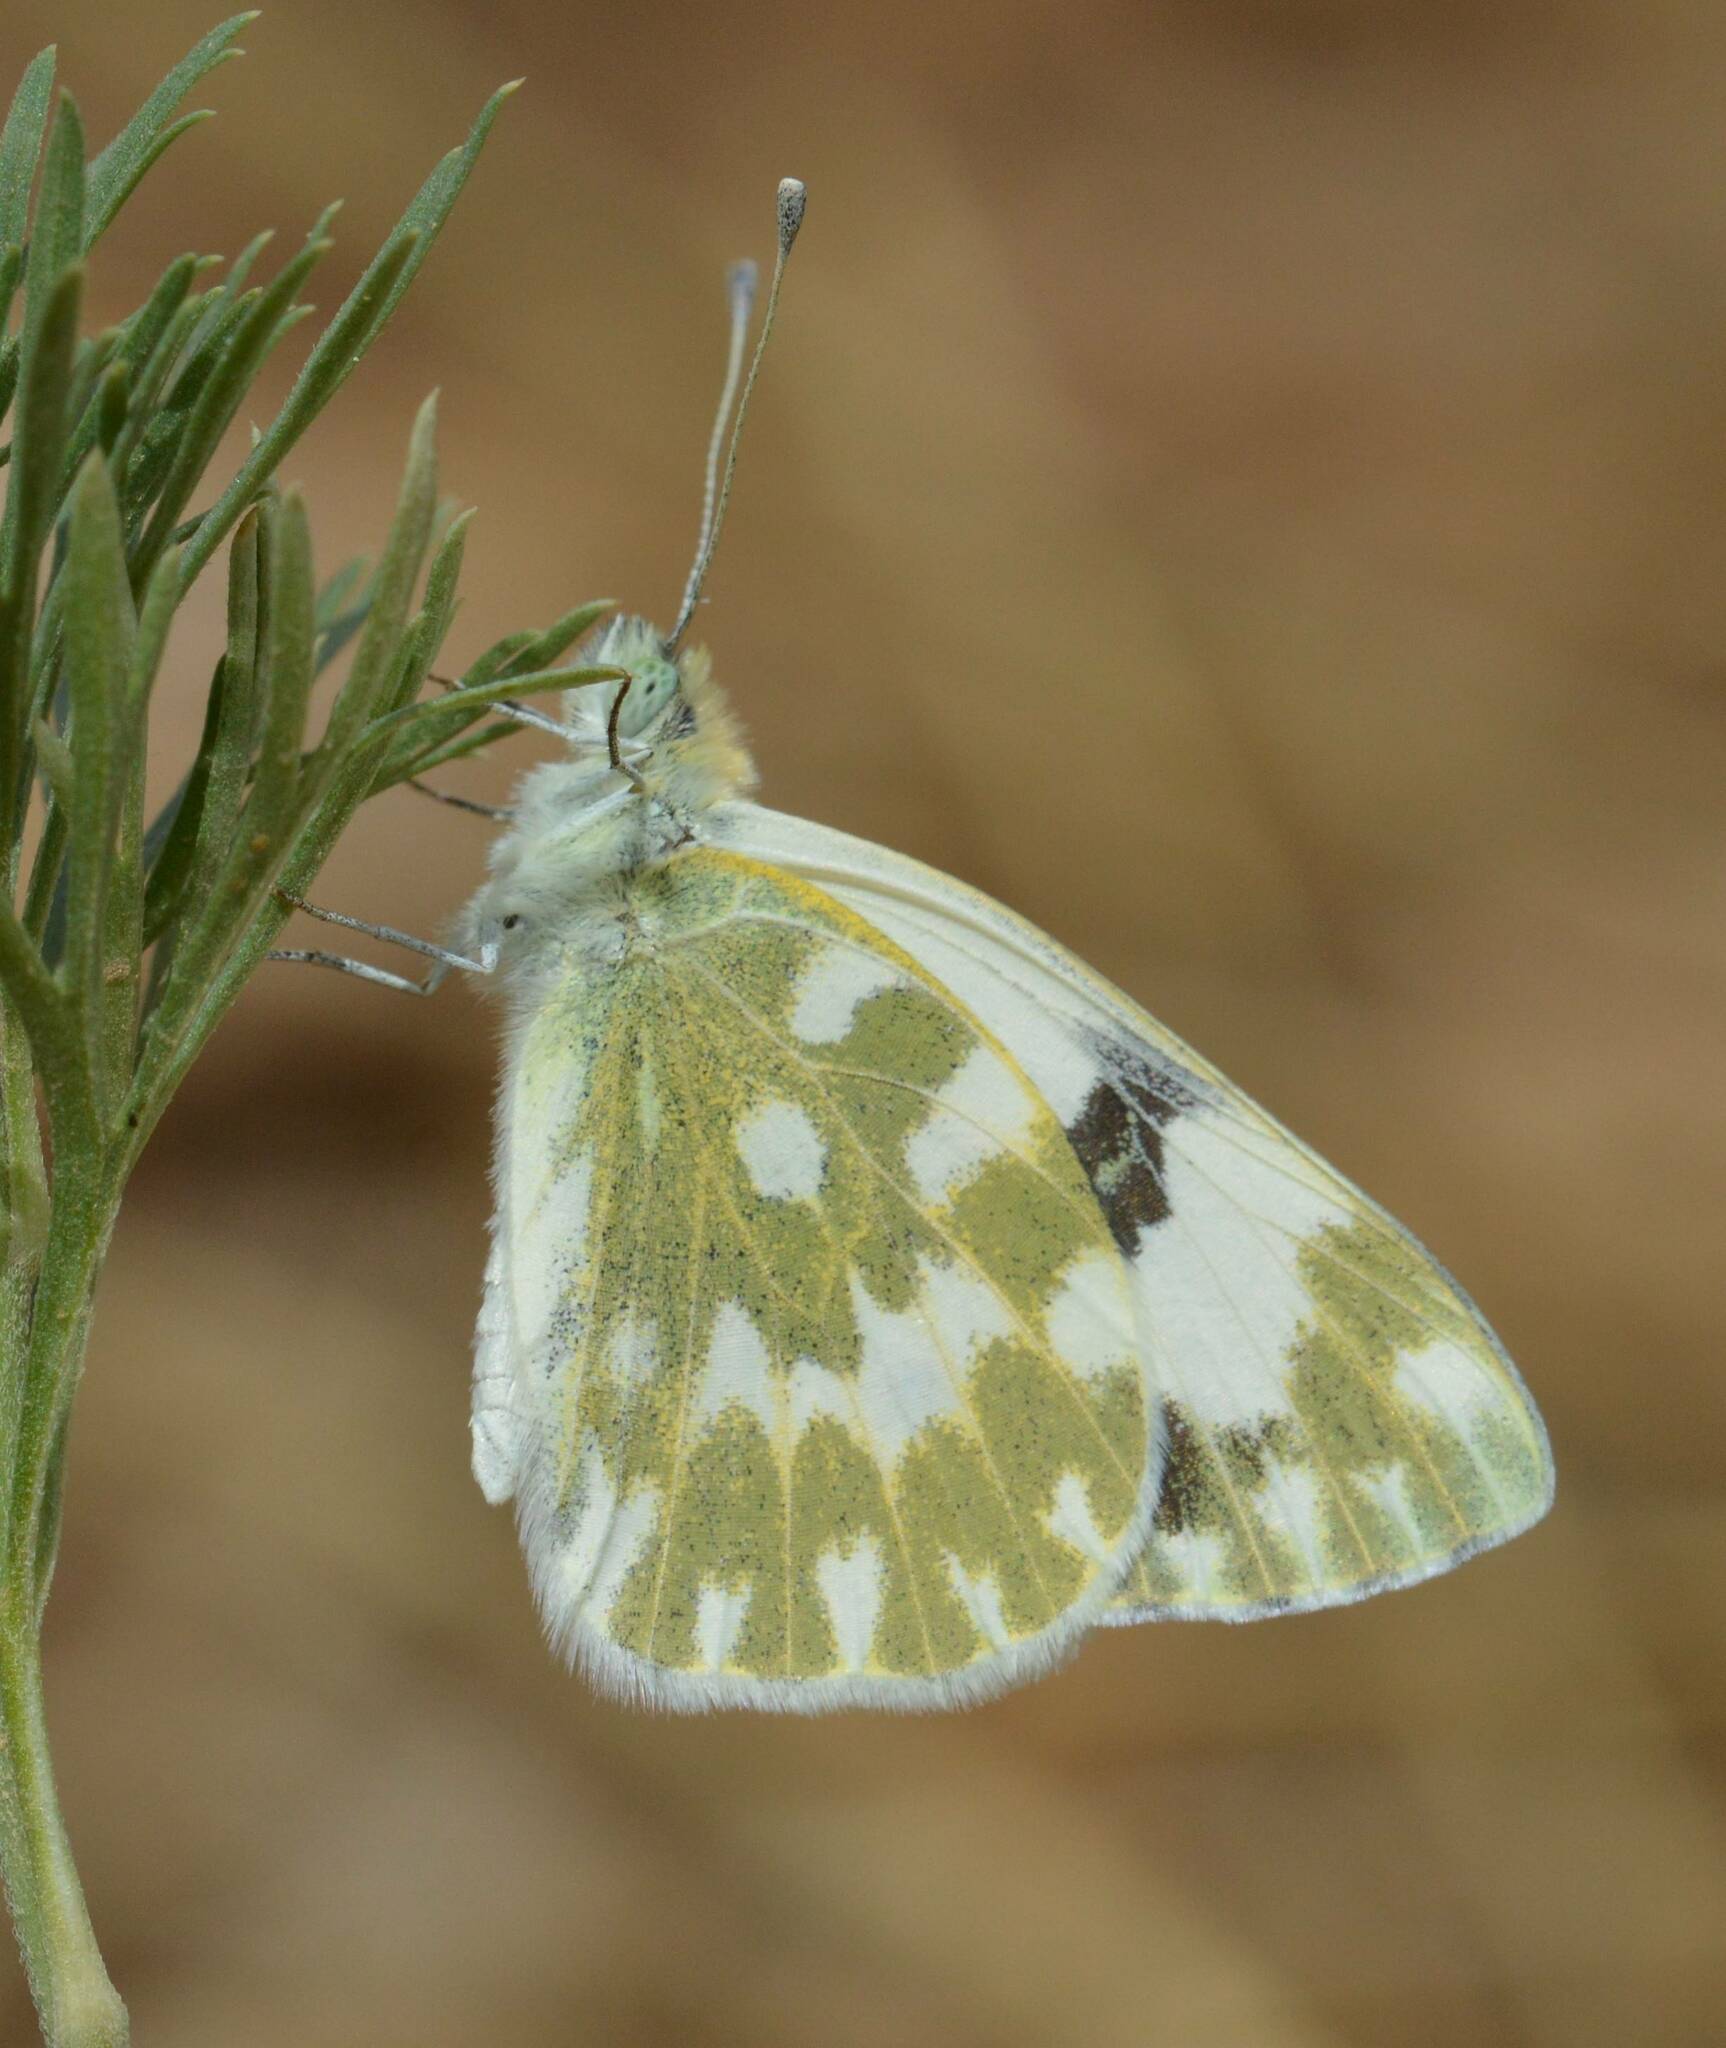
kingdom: Animalia
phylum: Arthropoda
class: Insecta
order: Lepidoptera
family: Pieridae
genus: Pontia
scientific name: Pontia daplidice
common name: Bath white
